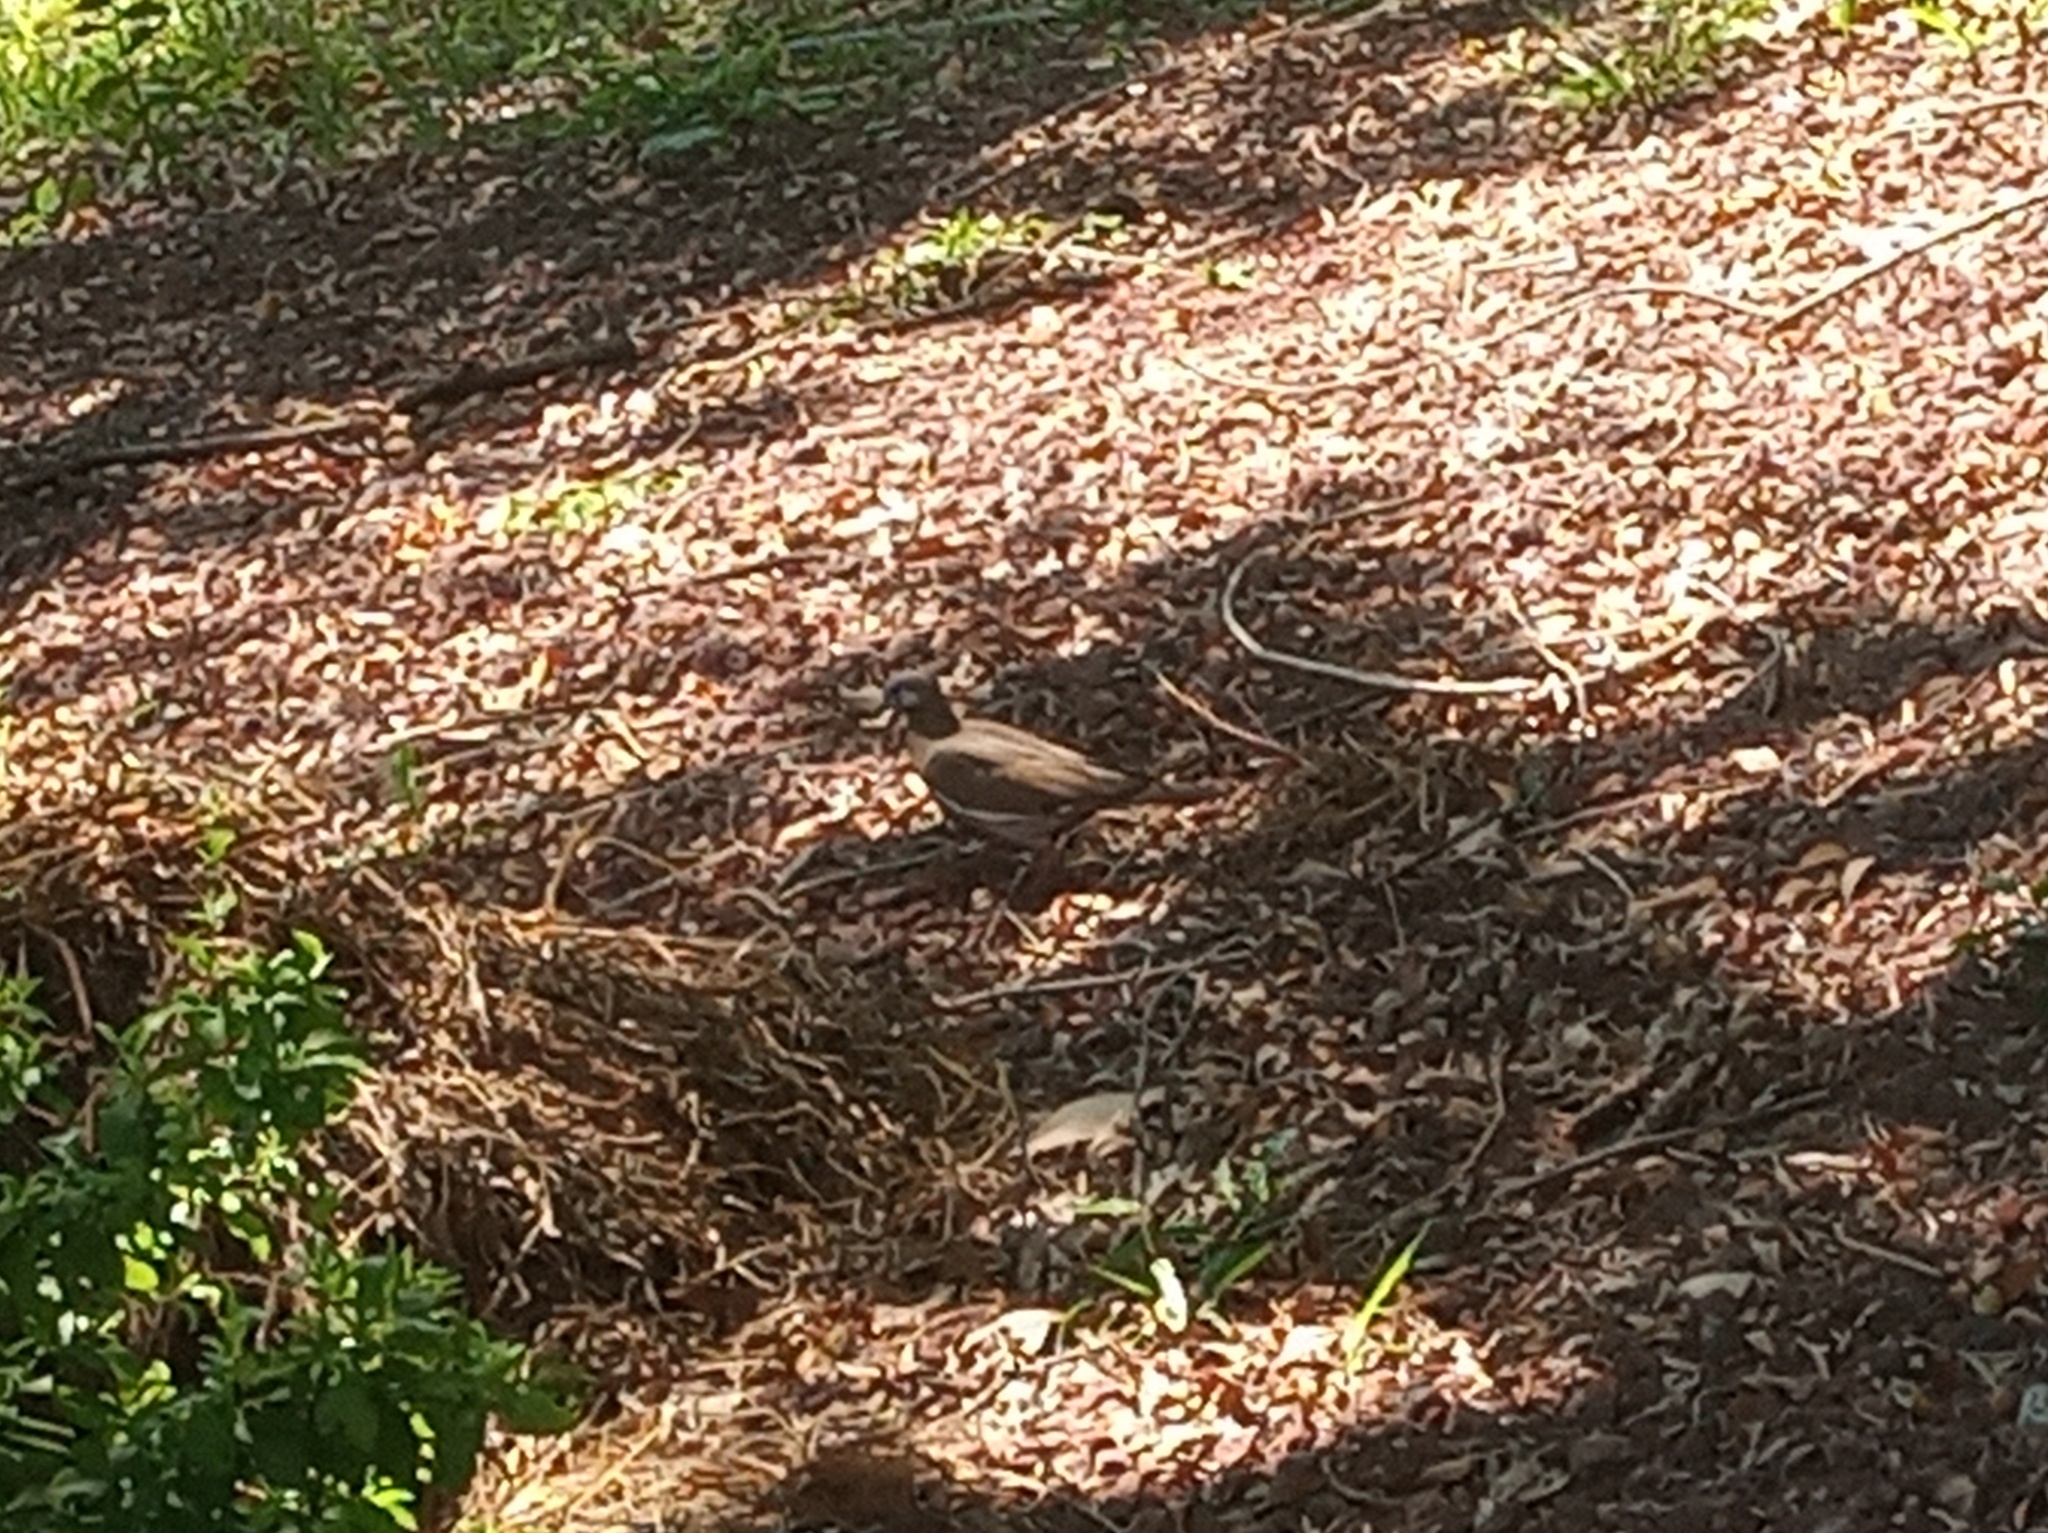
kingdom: Animalia
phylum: Chordata
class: Aves
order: Columbiformes
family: Columbidae
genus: Zenaida
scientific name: Zenaida asiatica
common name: White-winged dove
